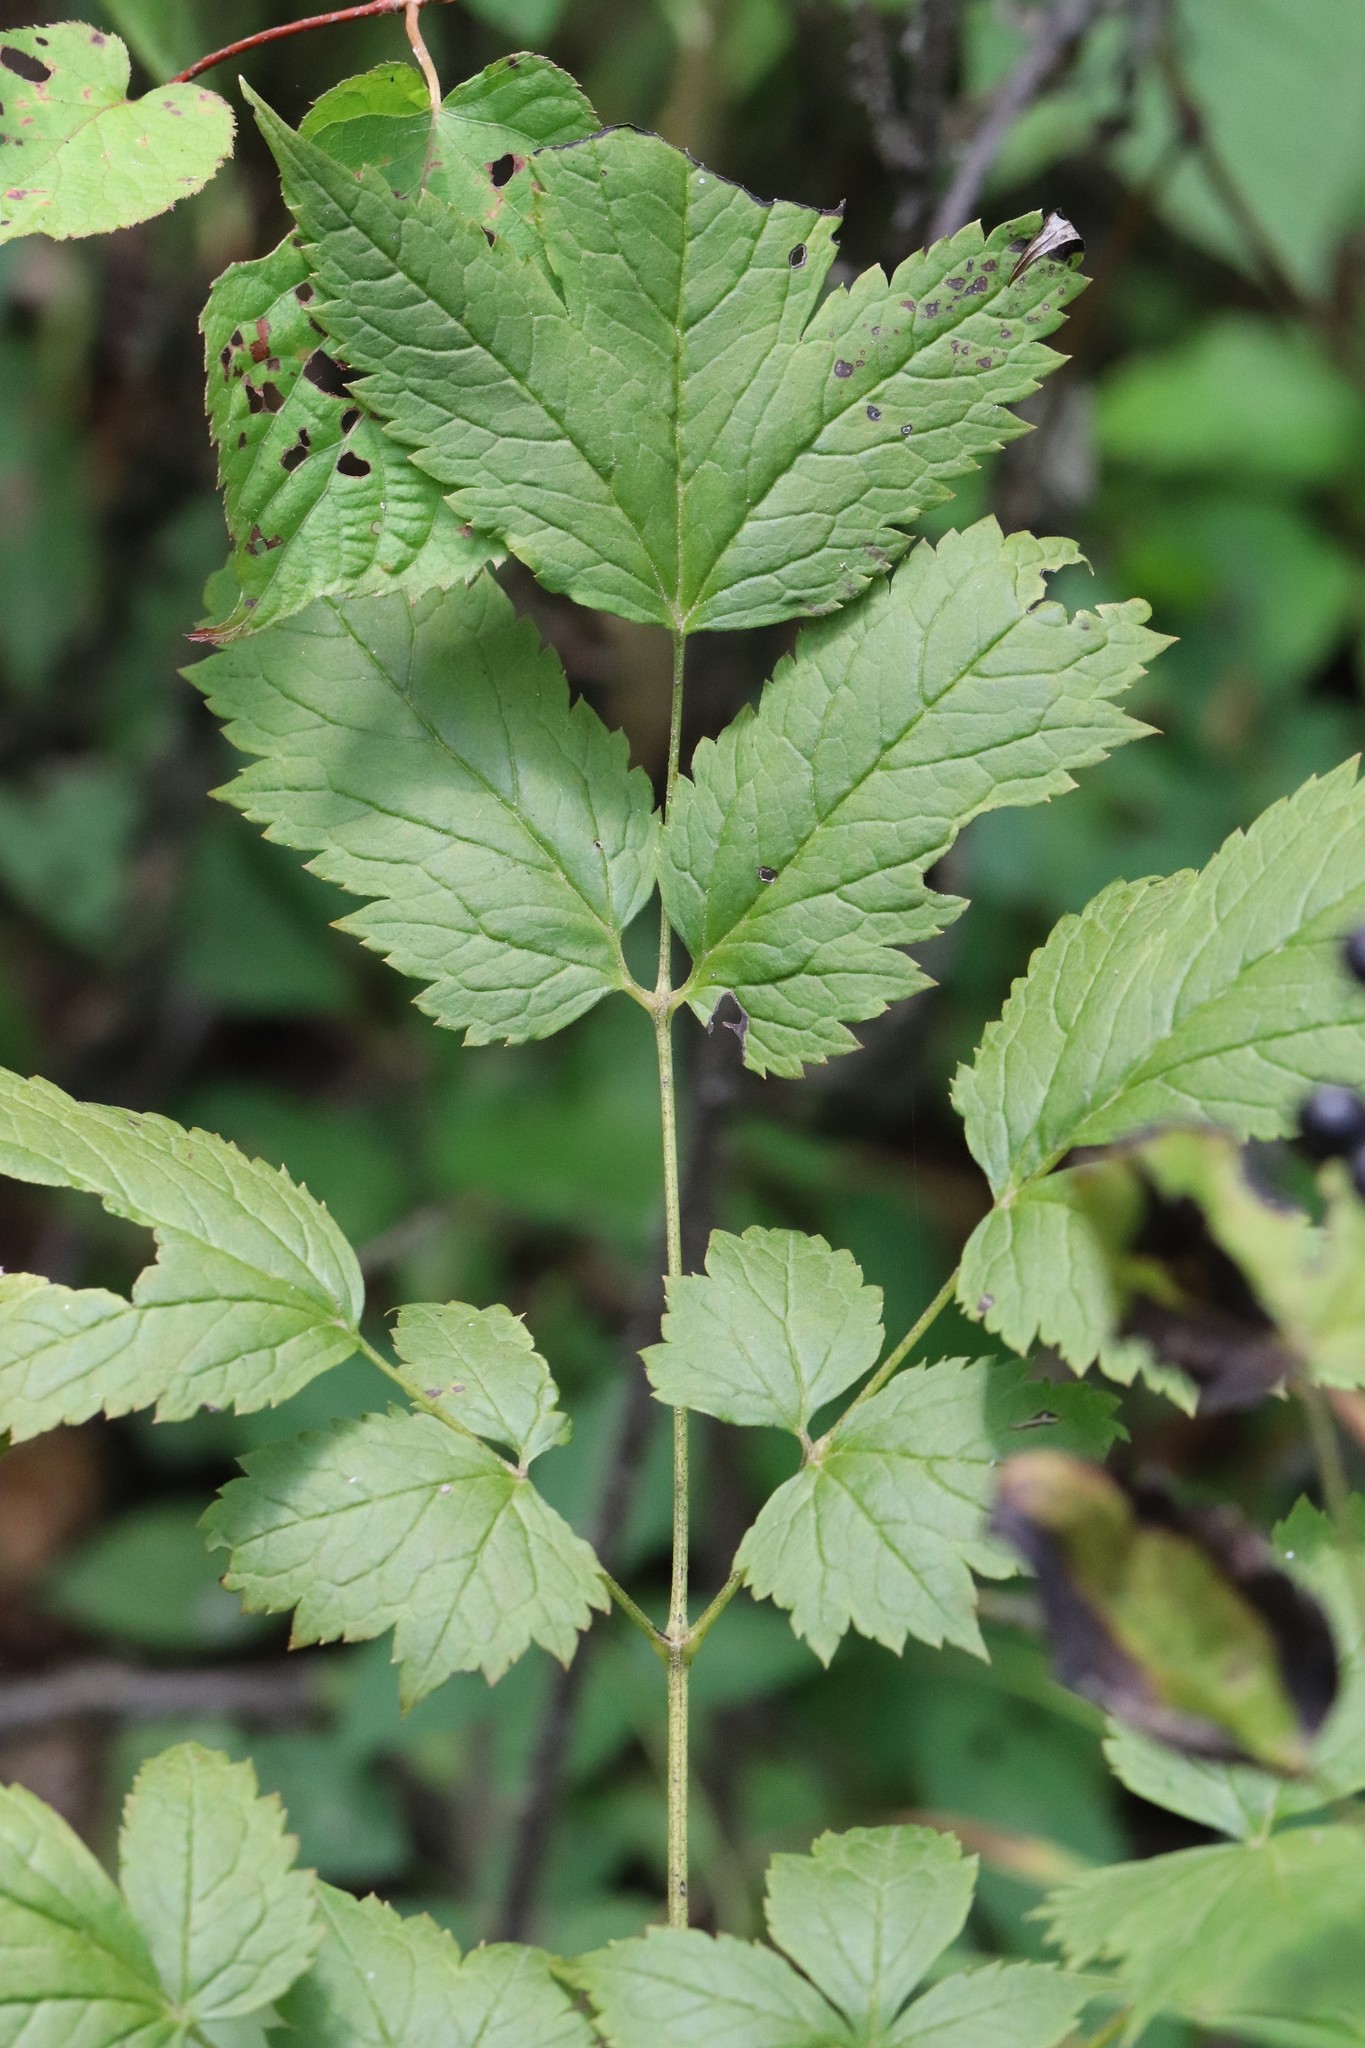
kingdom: Plantae
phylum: Tracheophyta
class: Magnoliopsida
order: Ranunculales
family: Ranunculaceae
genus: Actaea
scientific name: Actaea spicata
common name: Baneberry
